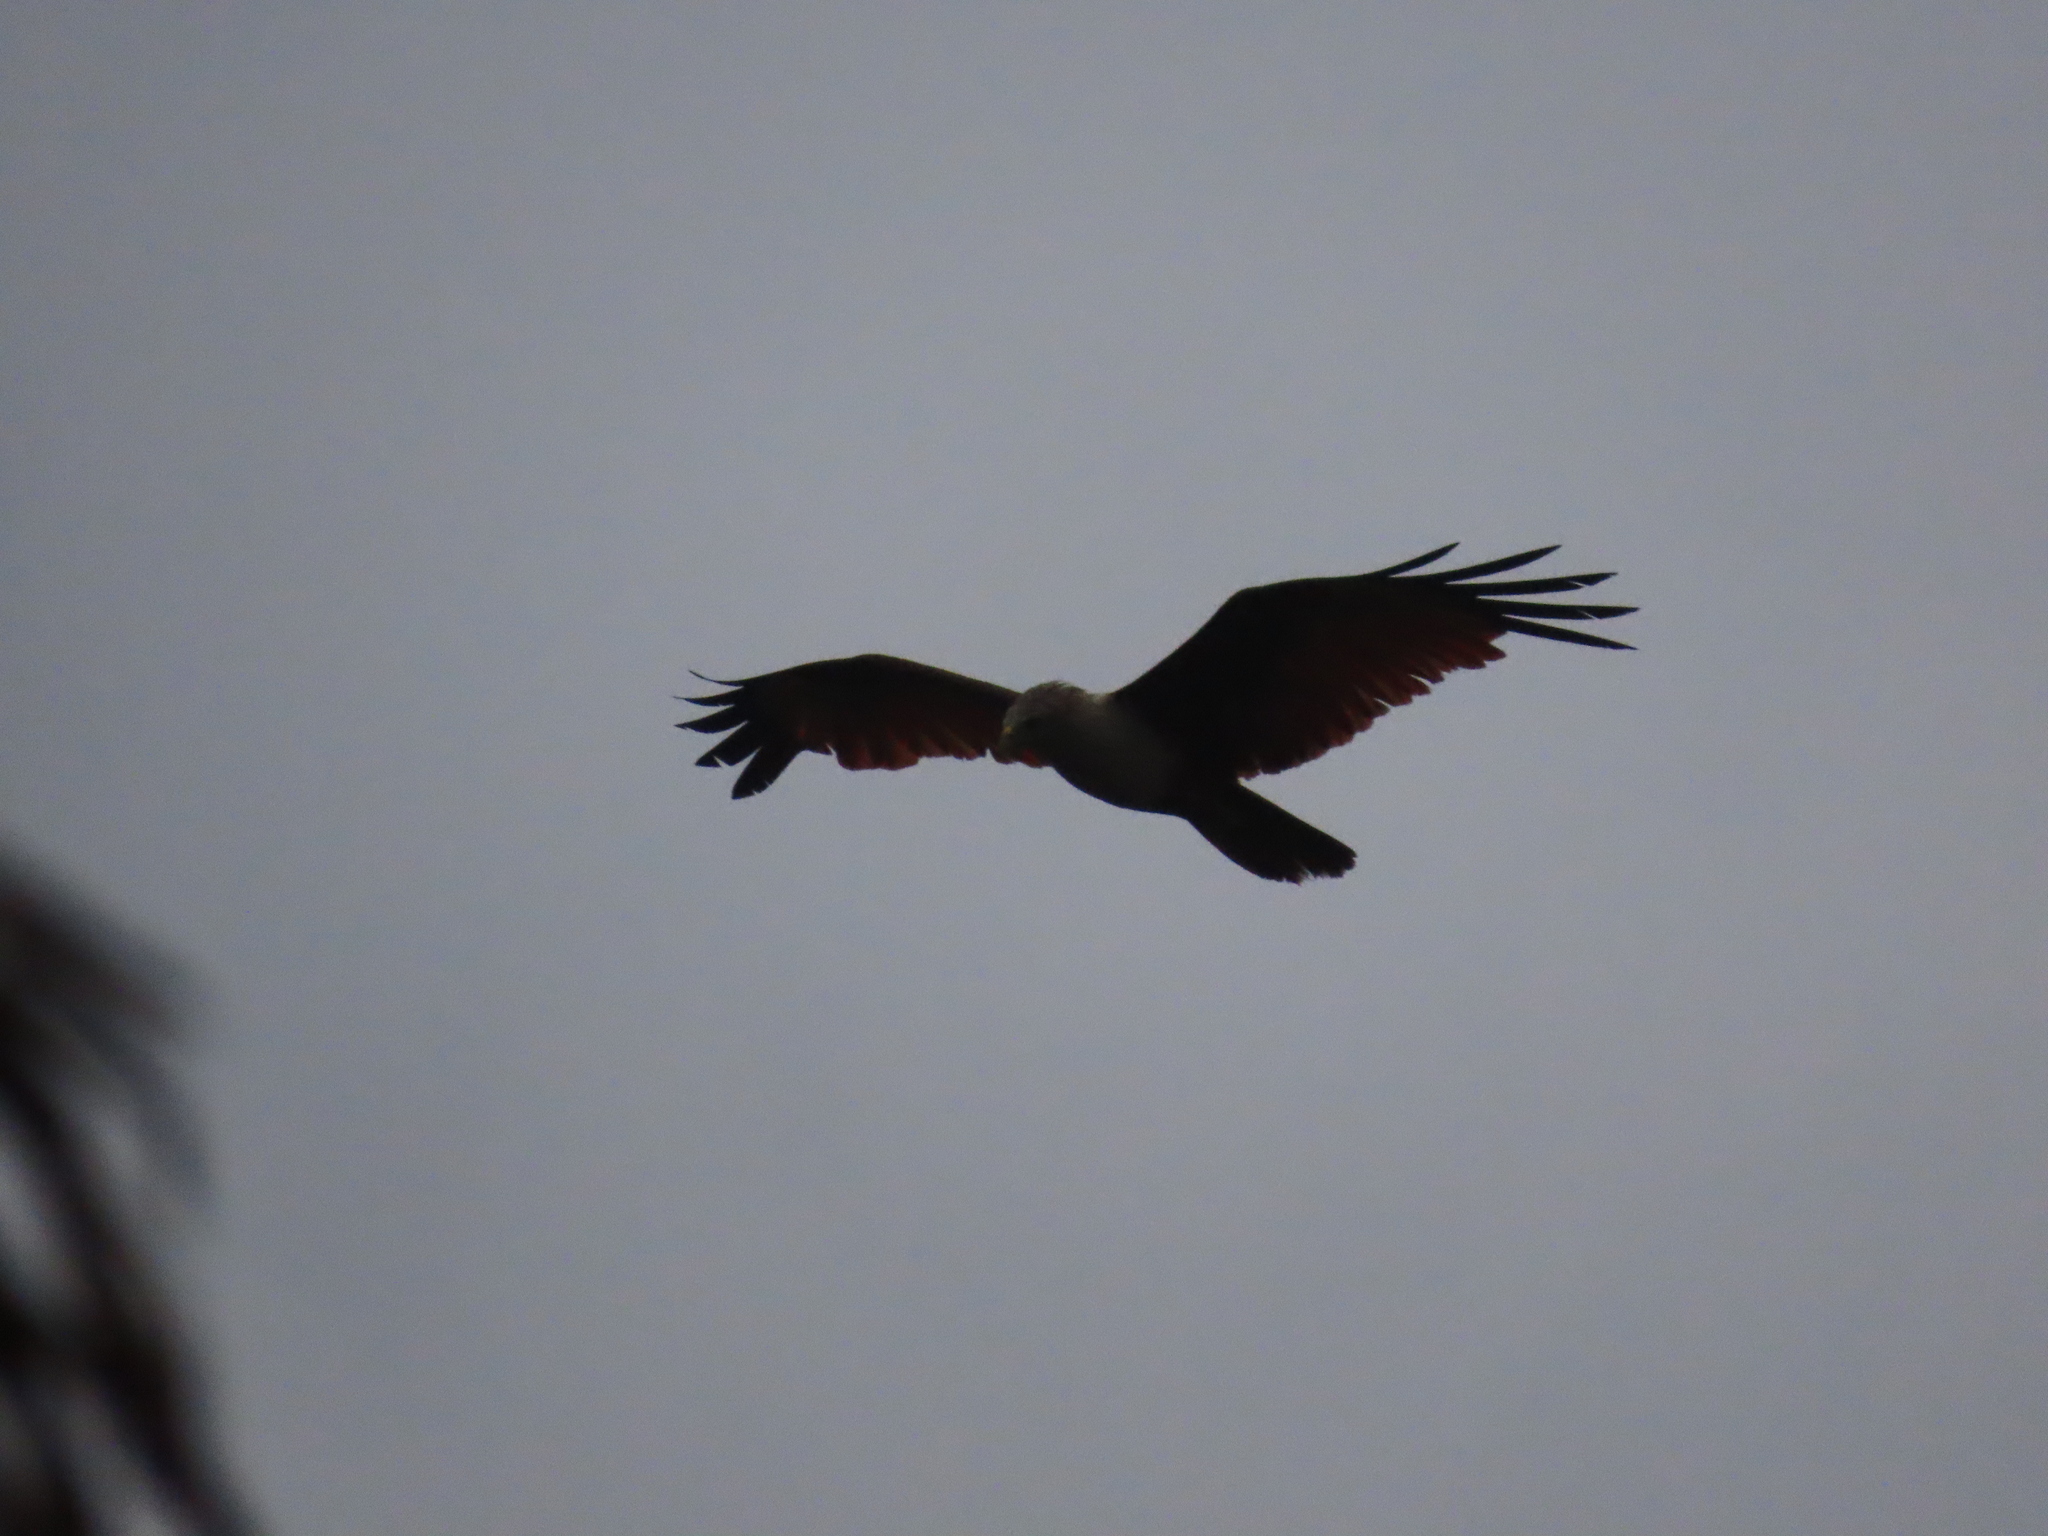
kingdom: Animalia
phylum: Chordata
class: Aves
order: Accipitriformes
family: Accipitridae
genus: Haliastur
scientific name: Haliastur indus
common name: Brahminy kite
